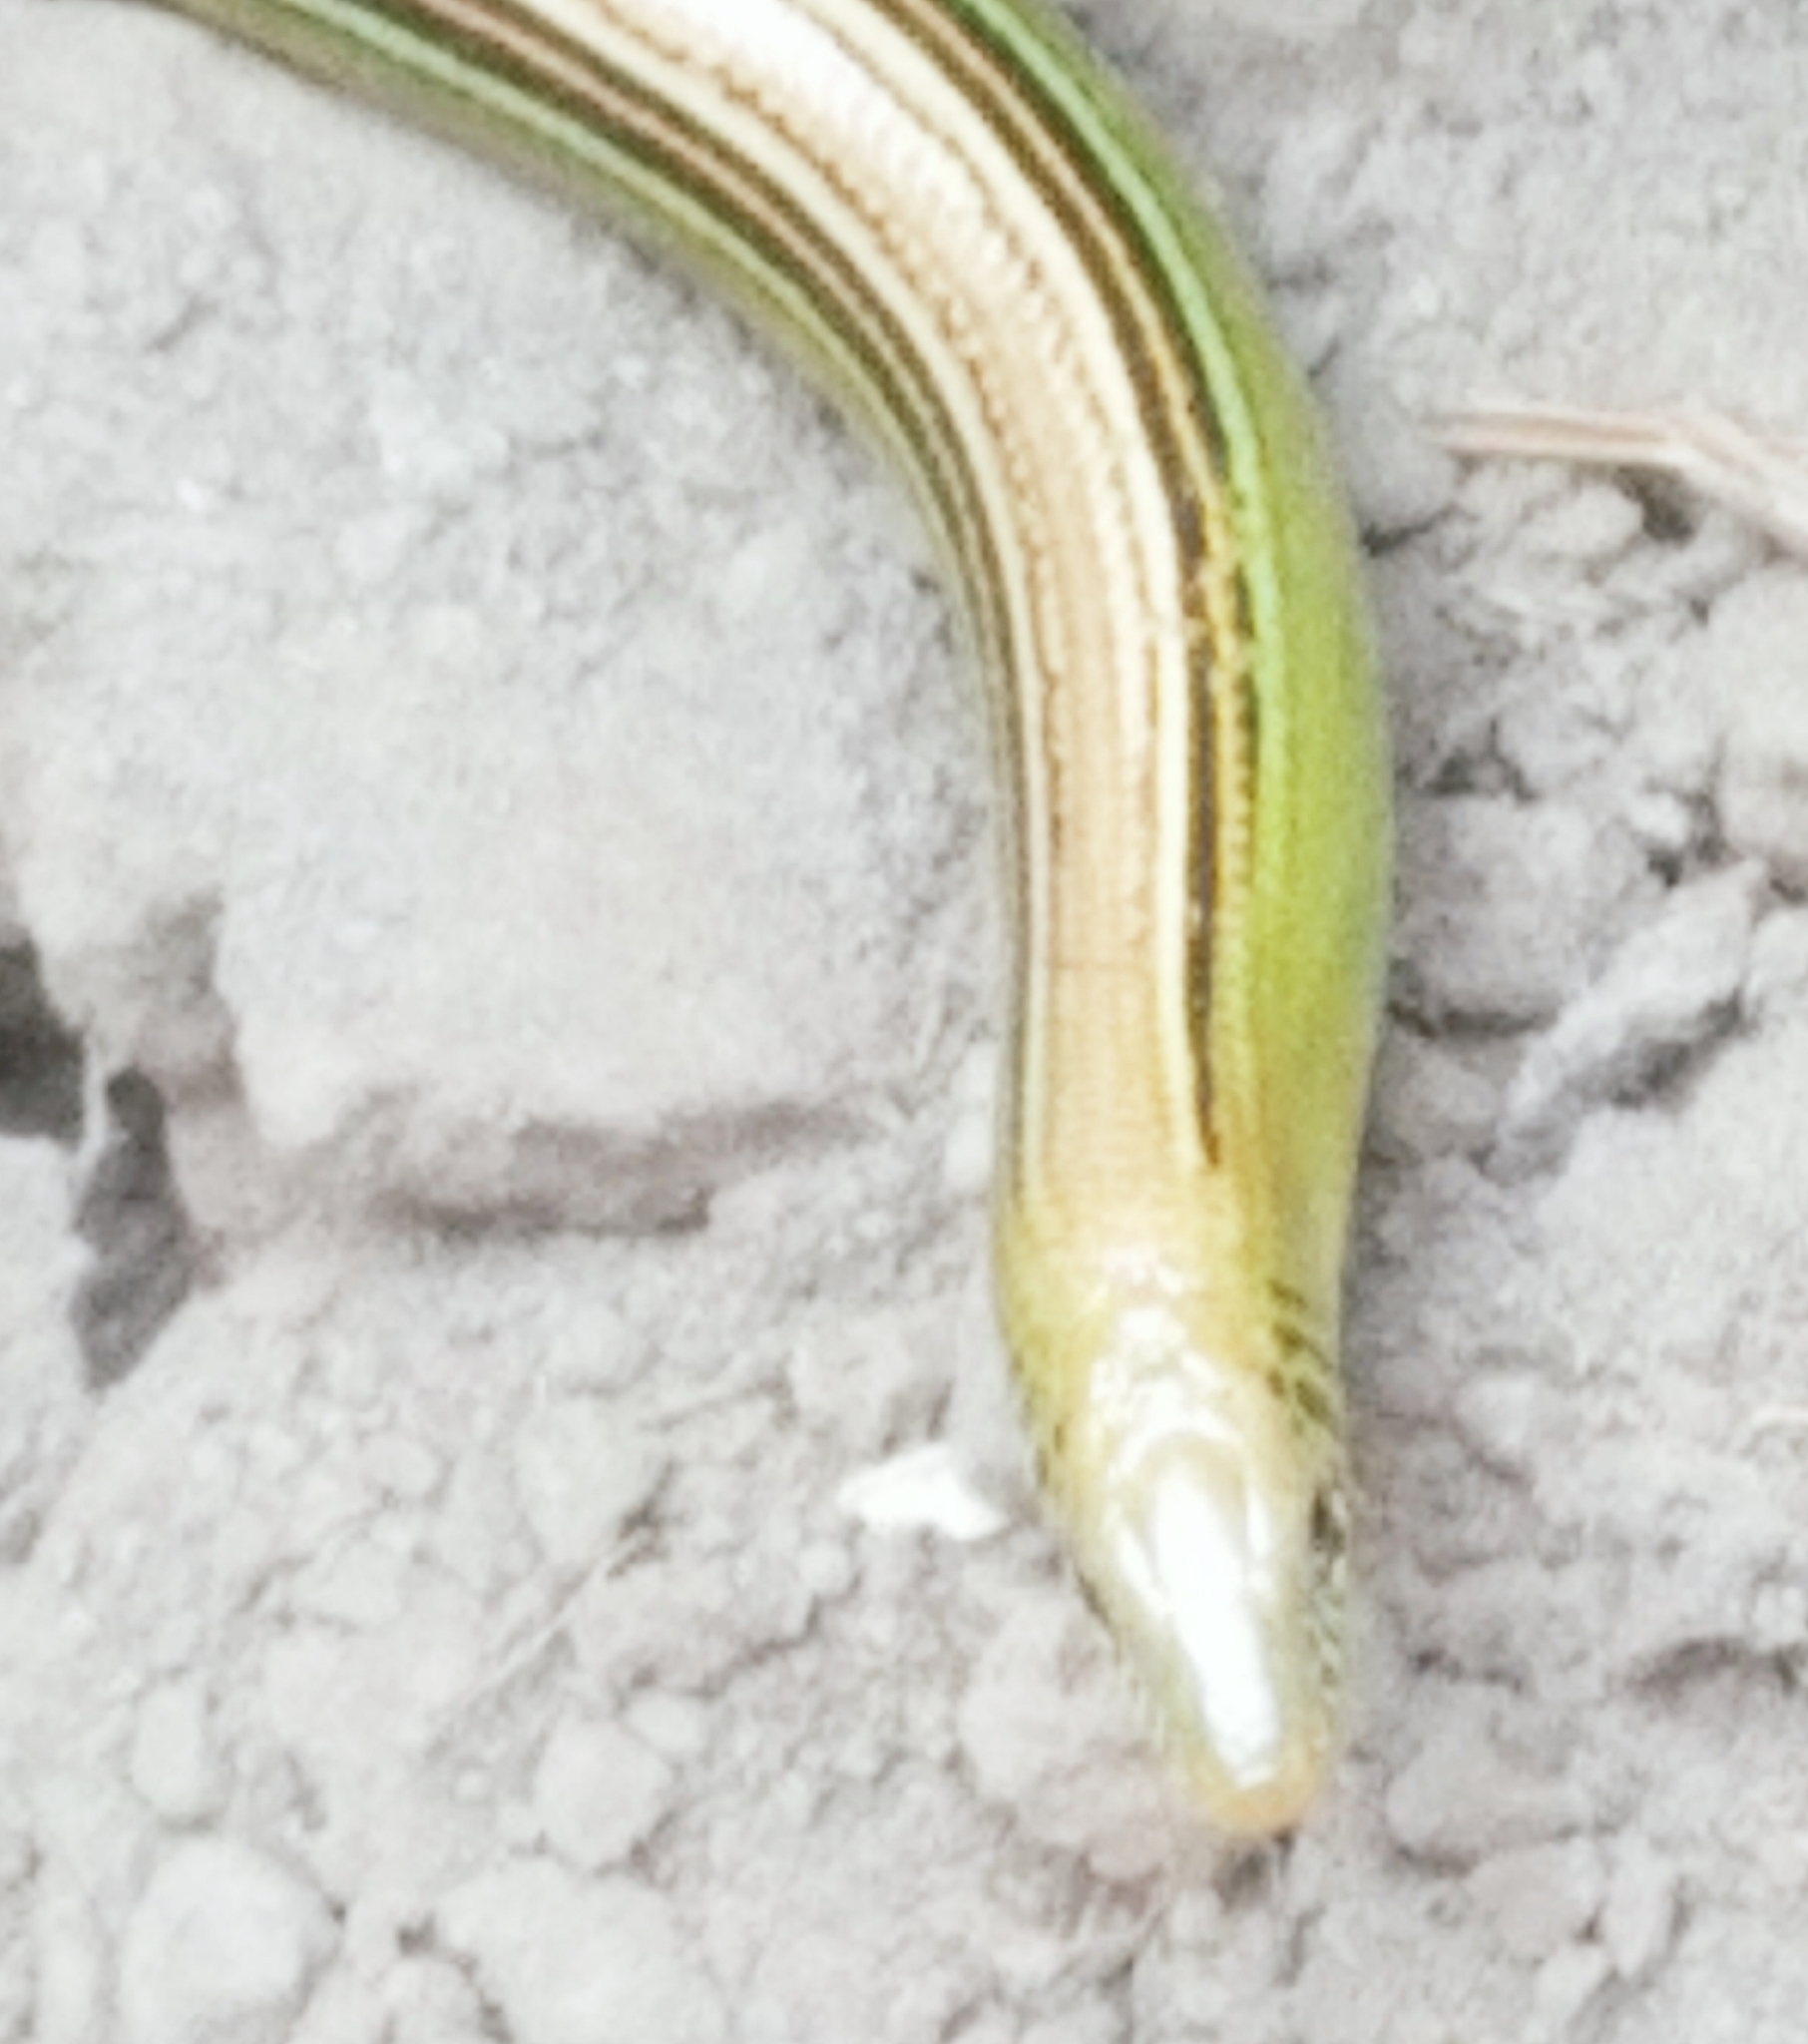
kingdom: Animalia
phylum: Chordata
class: Squamata
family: Diploglossidae
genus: Ophiodes
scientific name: Ophiodes striatus
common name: Striped worm lizard
